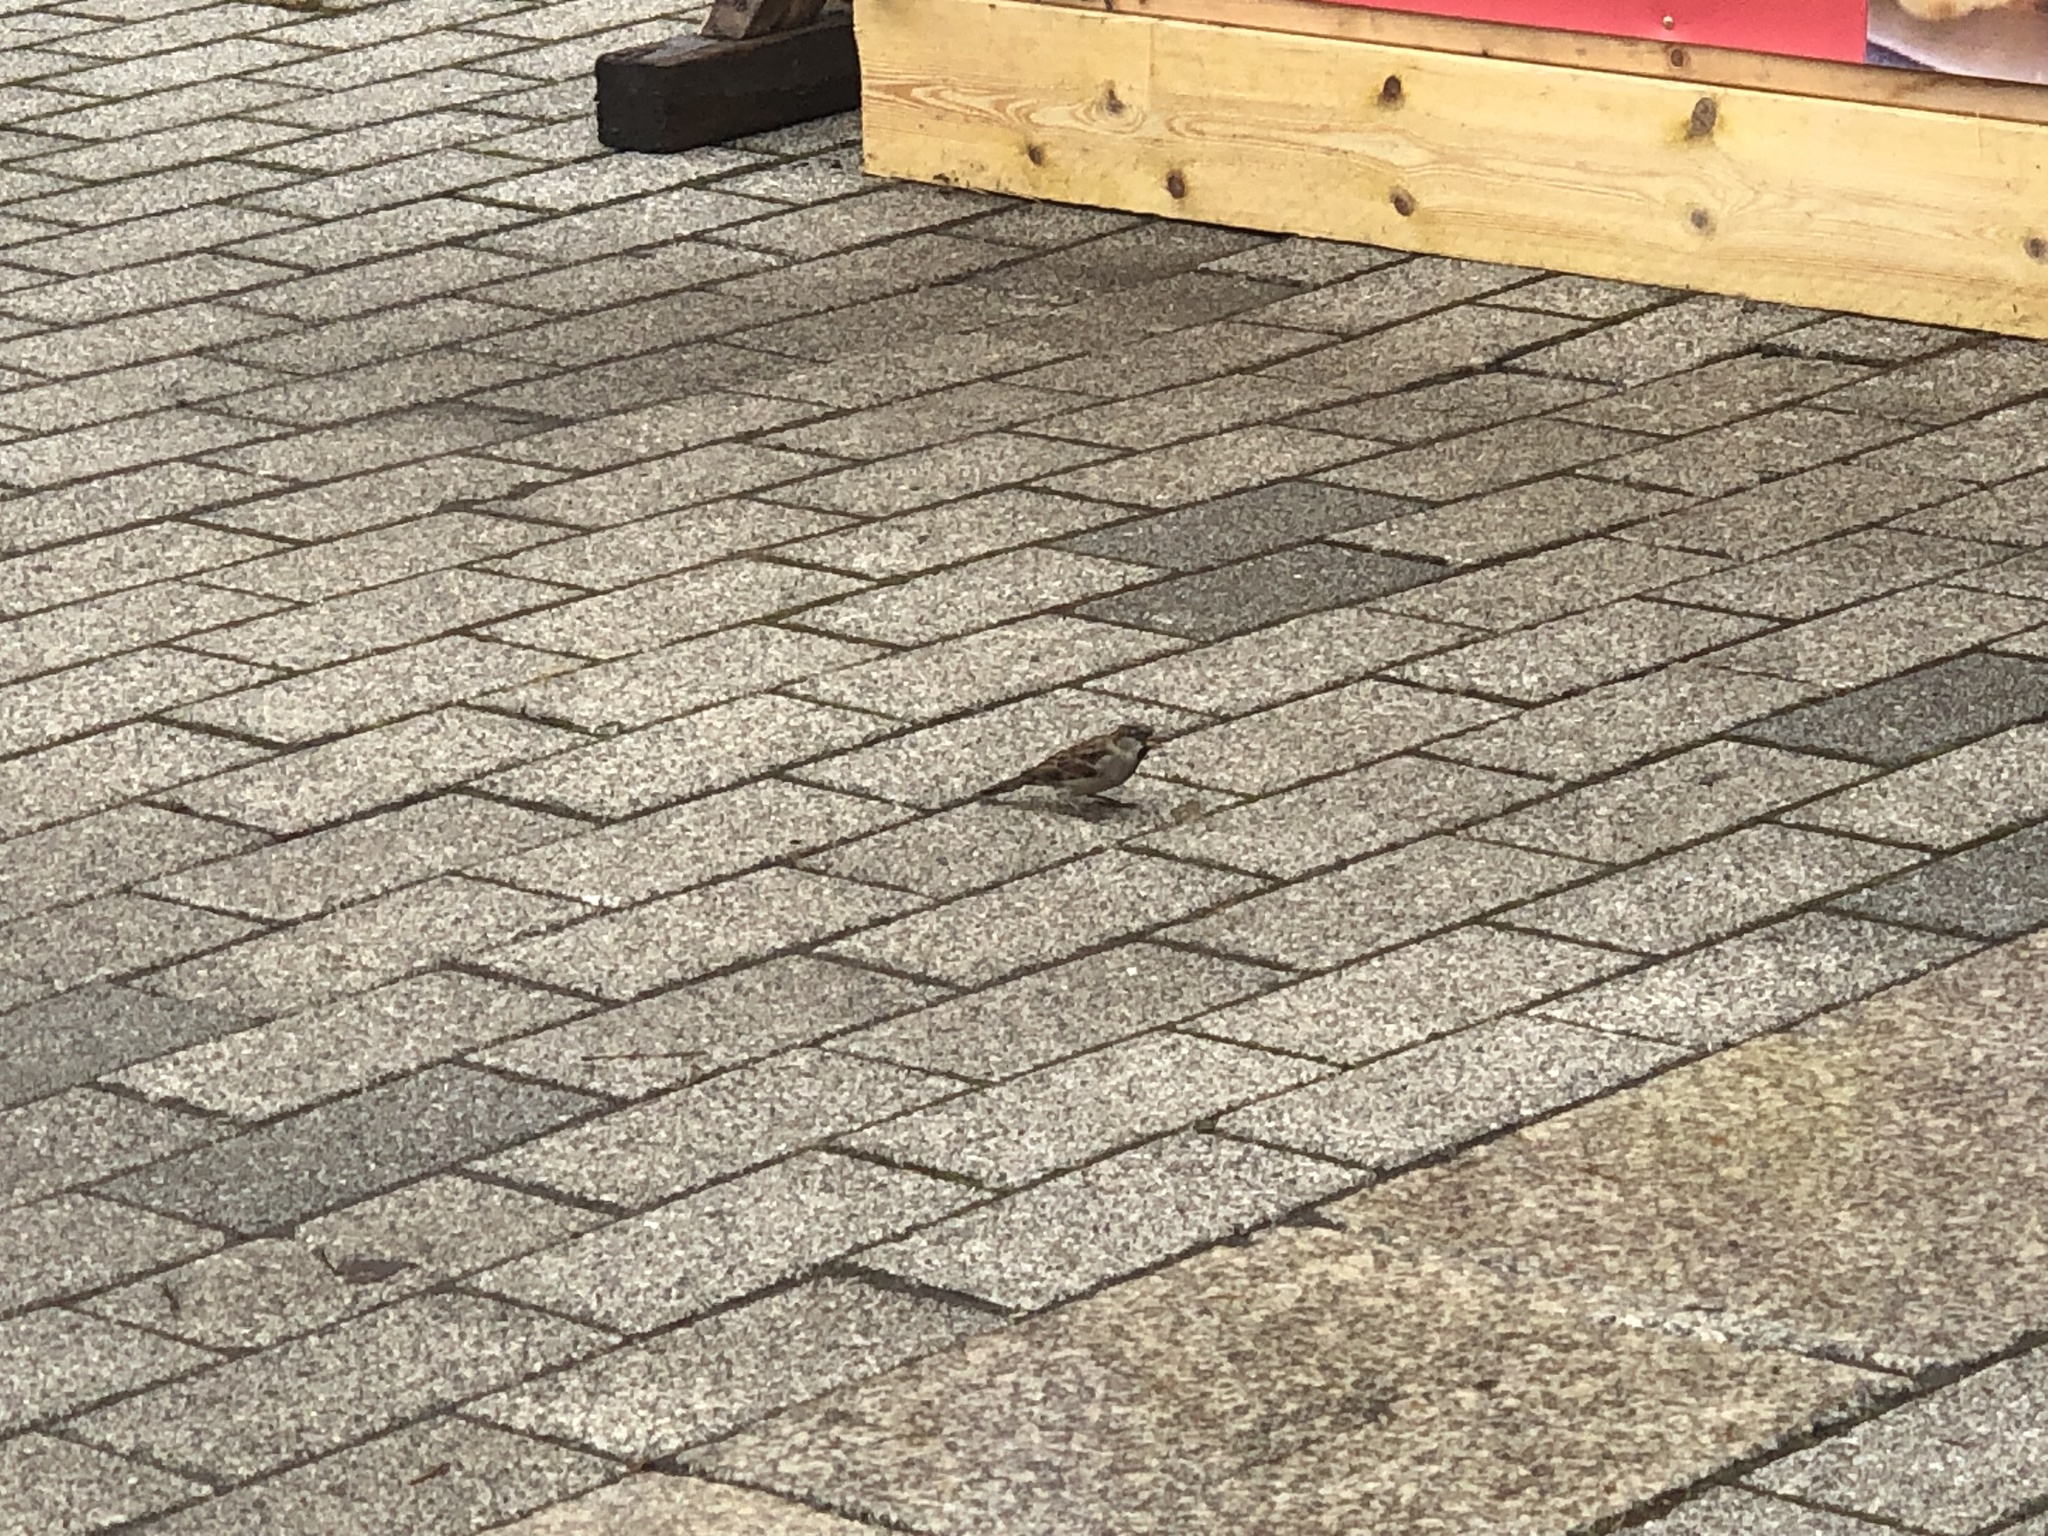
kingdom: Animalia
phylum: Chordata
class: Aves
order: Passeriformes
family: Passeridae
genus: Passer
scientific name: Passer domesticus
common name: House sparrow
